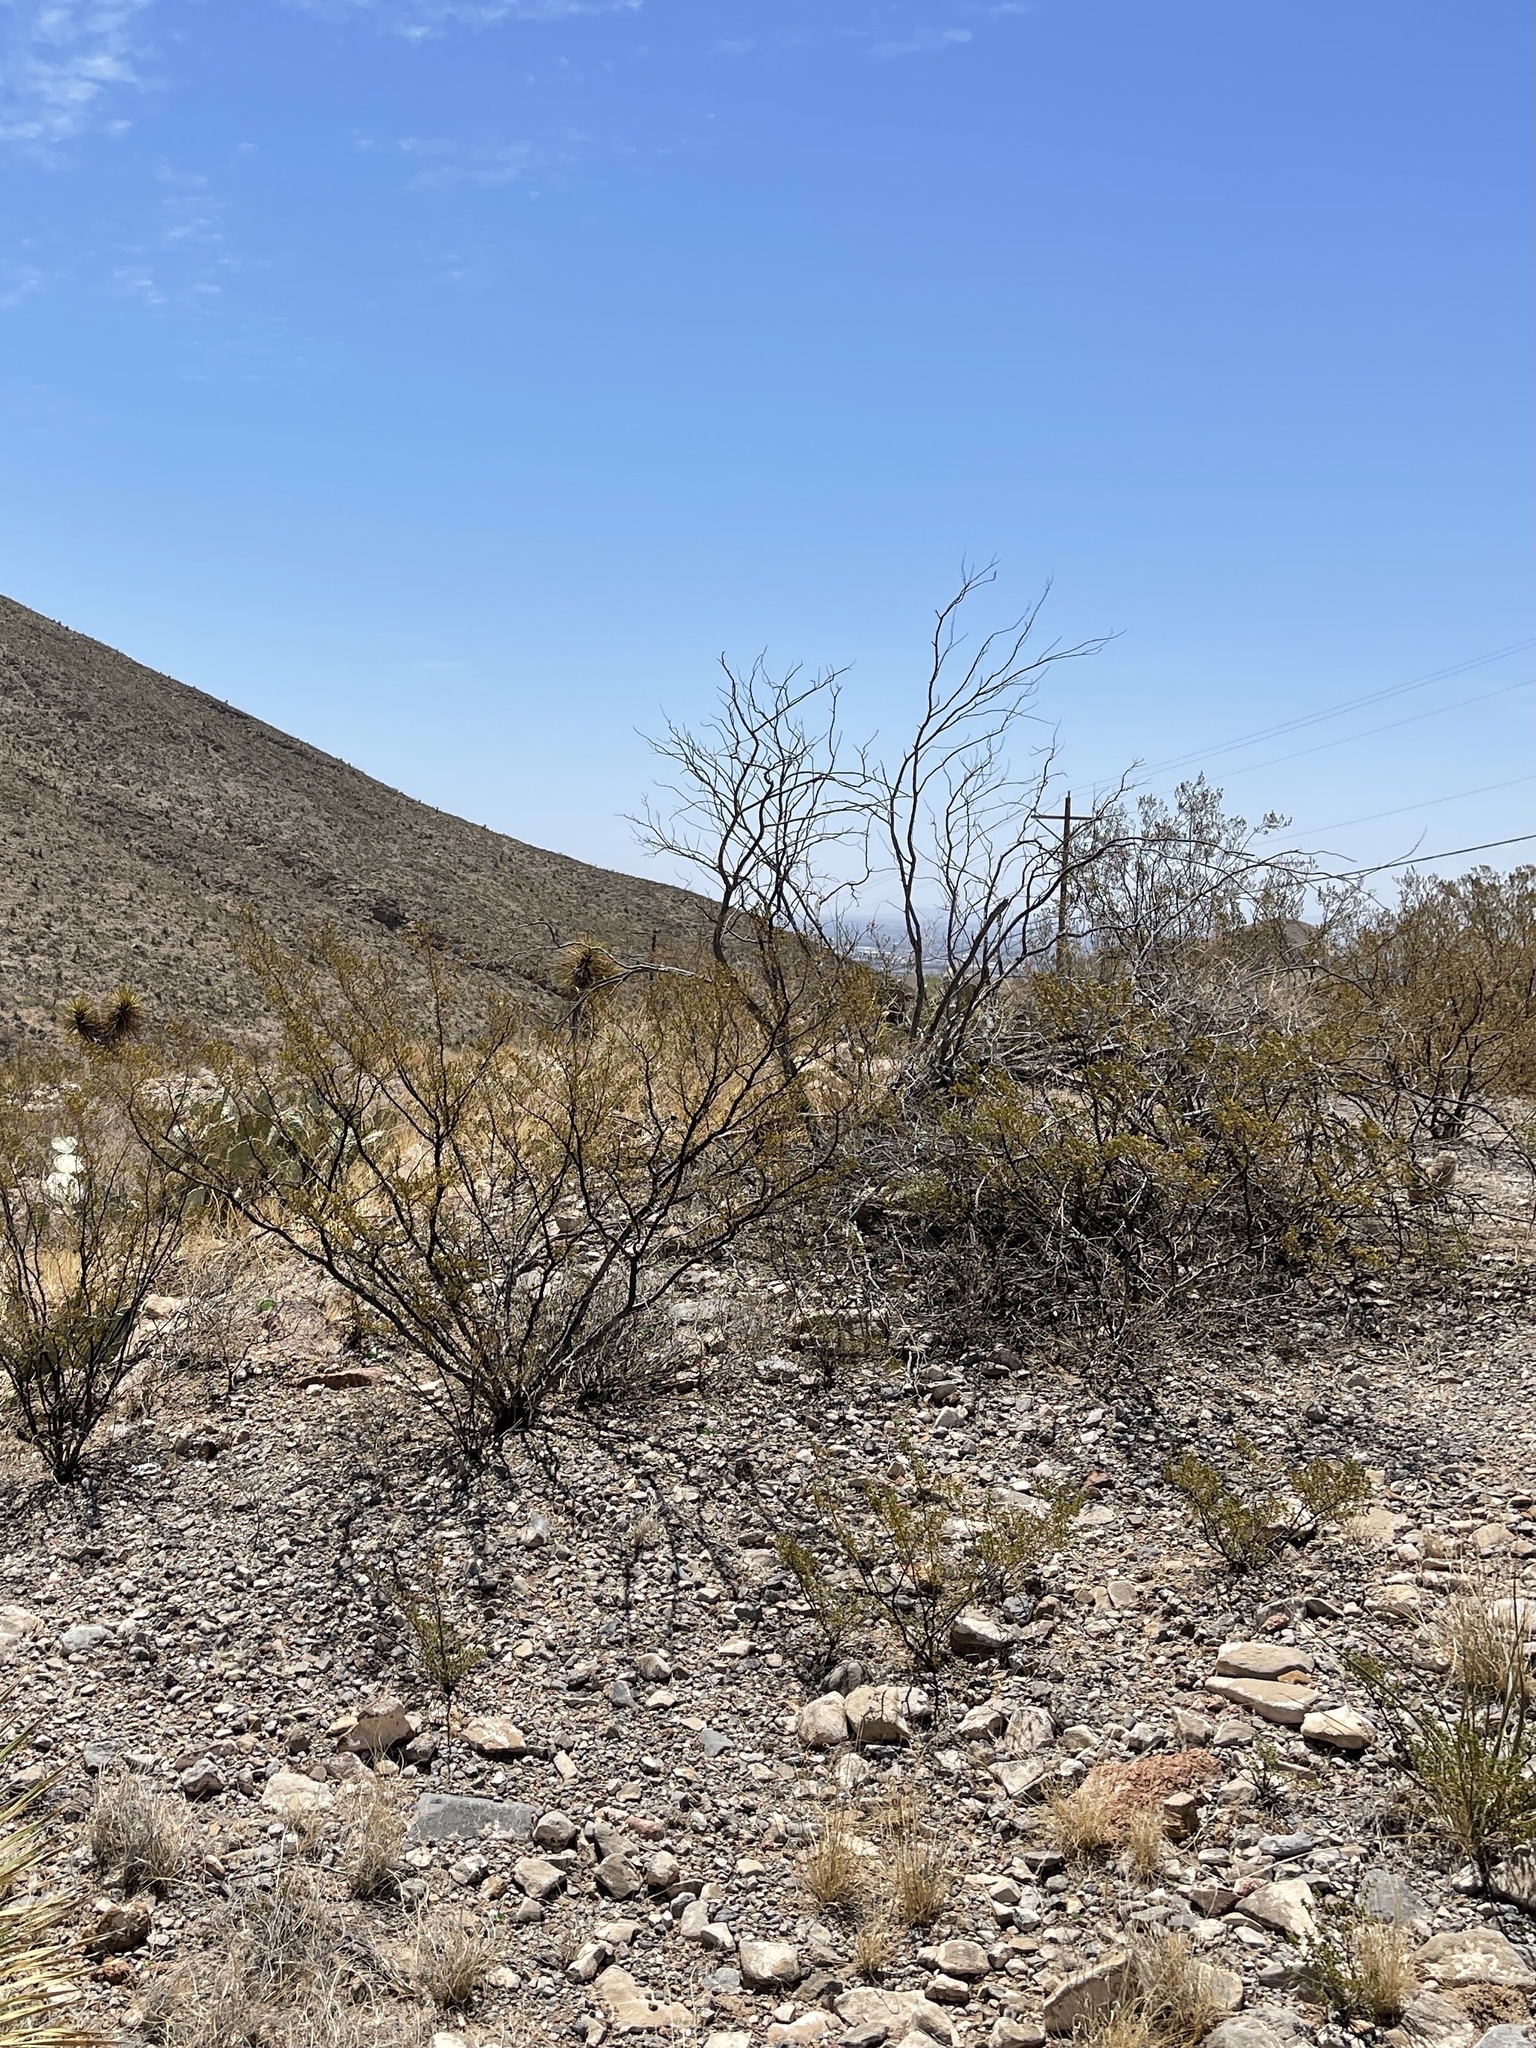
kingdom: Plantae
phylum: Tracheophyta
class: Magnoliopsida
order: Zygophyllales
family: Zygophyllaceae
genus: Larrea
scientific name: Larrea tridentata
